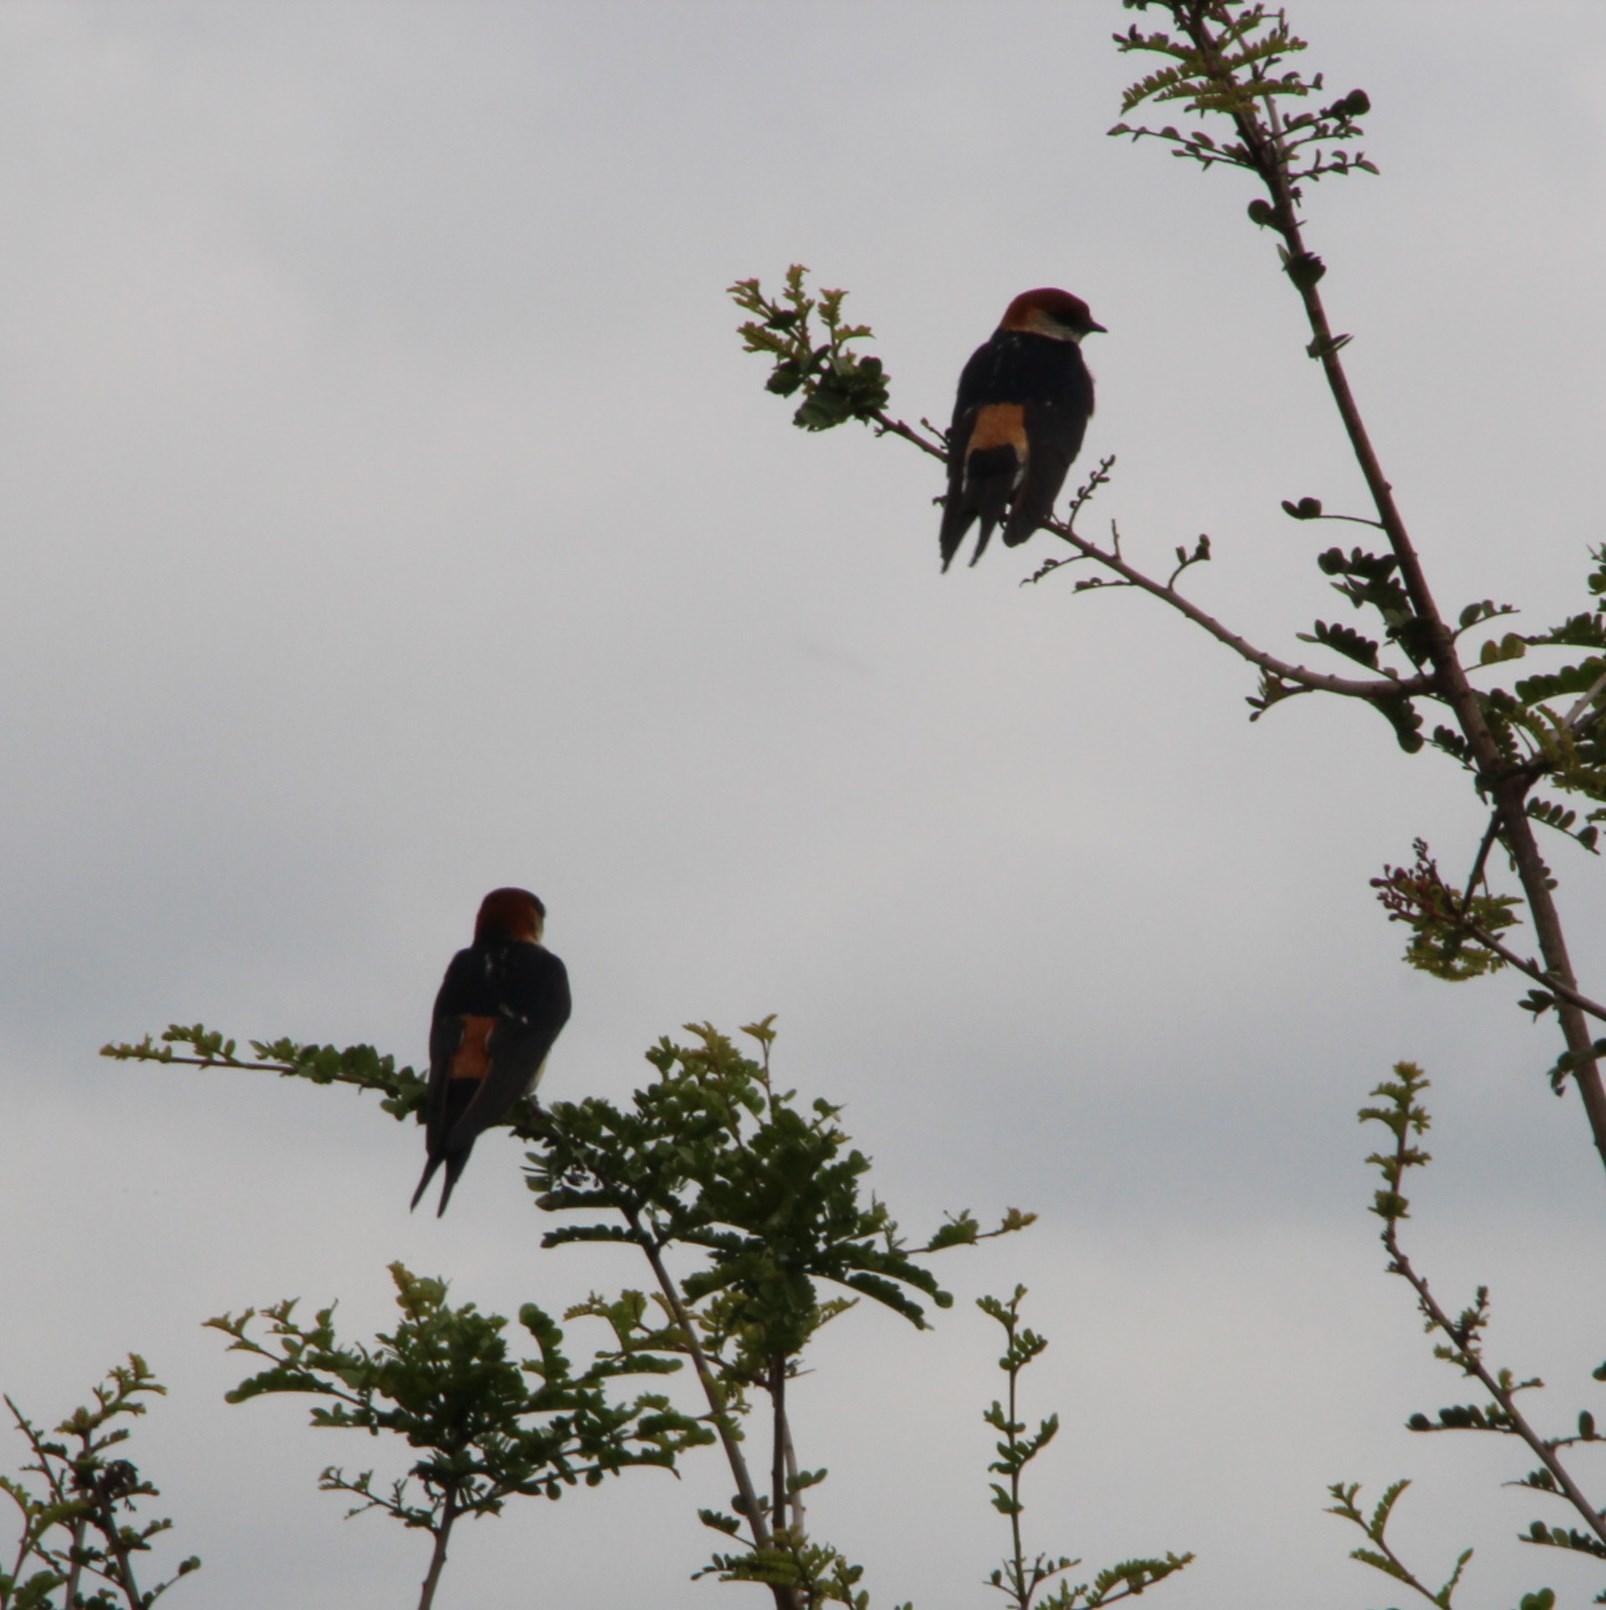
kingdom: Animalia
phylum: Chordata
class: Aves
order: Passeriformes
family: Hirundinidae
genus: Cecropis
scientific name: Cecropis cucullata
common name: Greater striped-swallow
